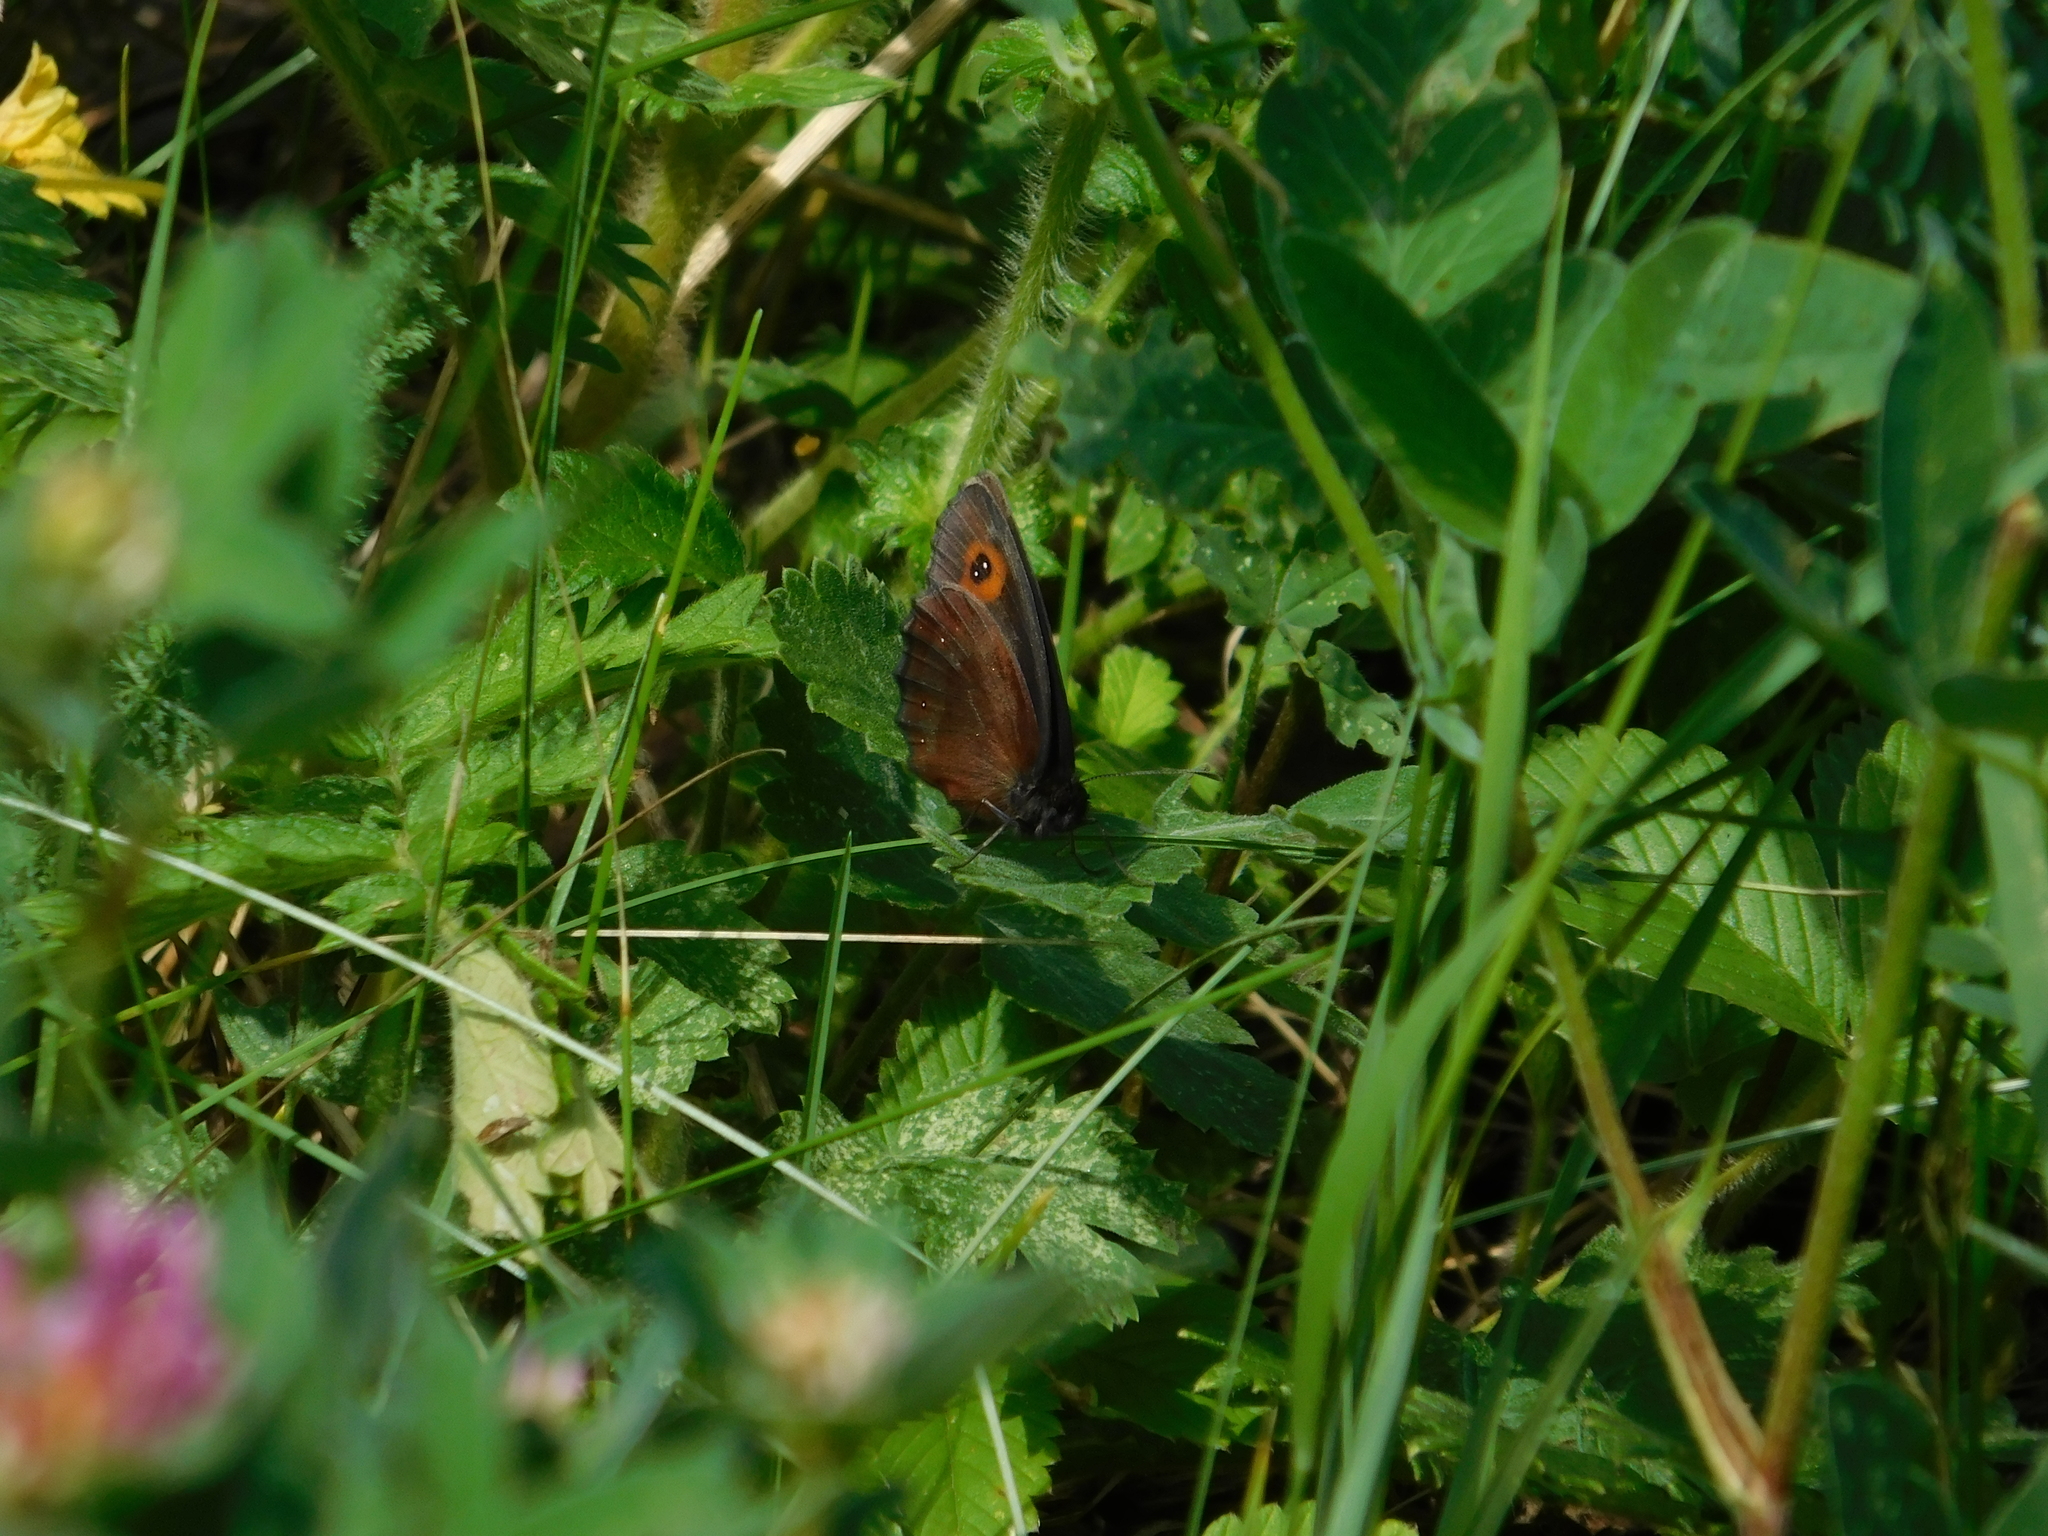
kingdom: Animalia
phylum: Arthropoda
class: Insecta
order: Lepidoptera
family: Nymphalidae
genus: Erebia
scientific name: Erebia aethiops
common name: Scotch argus
